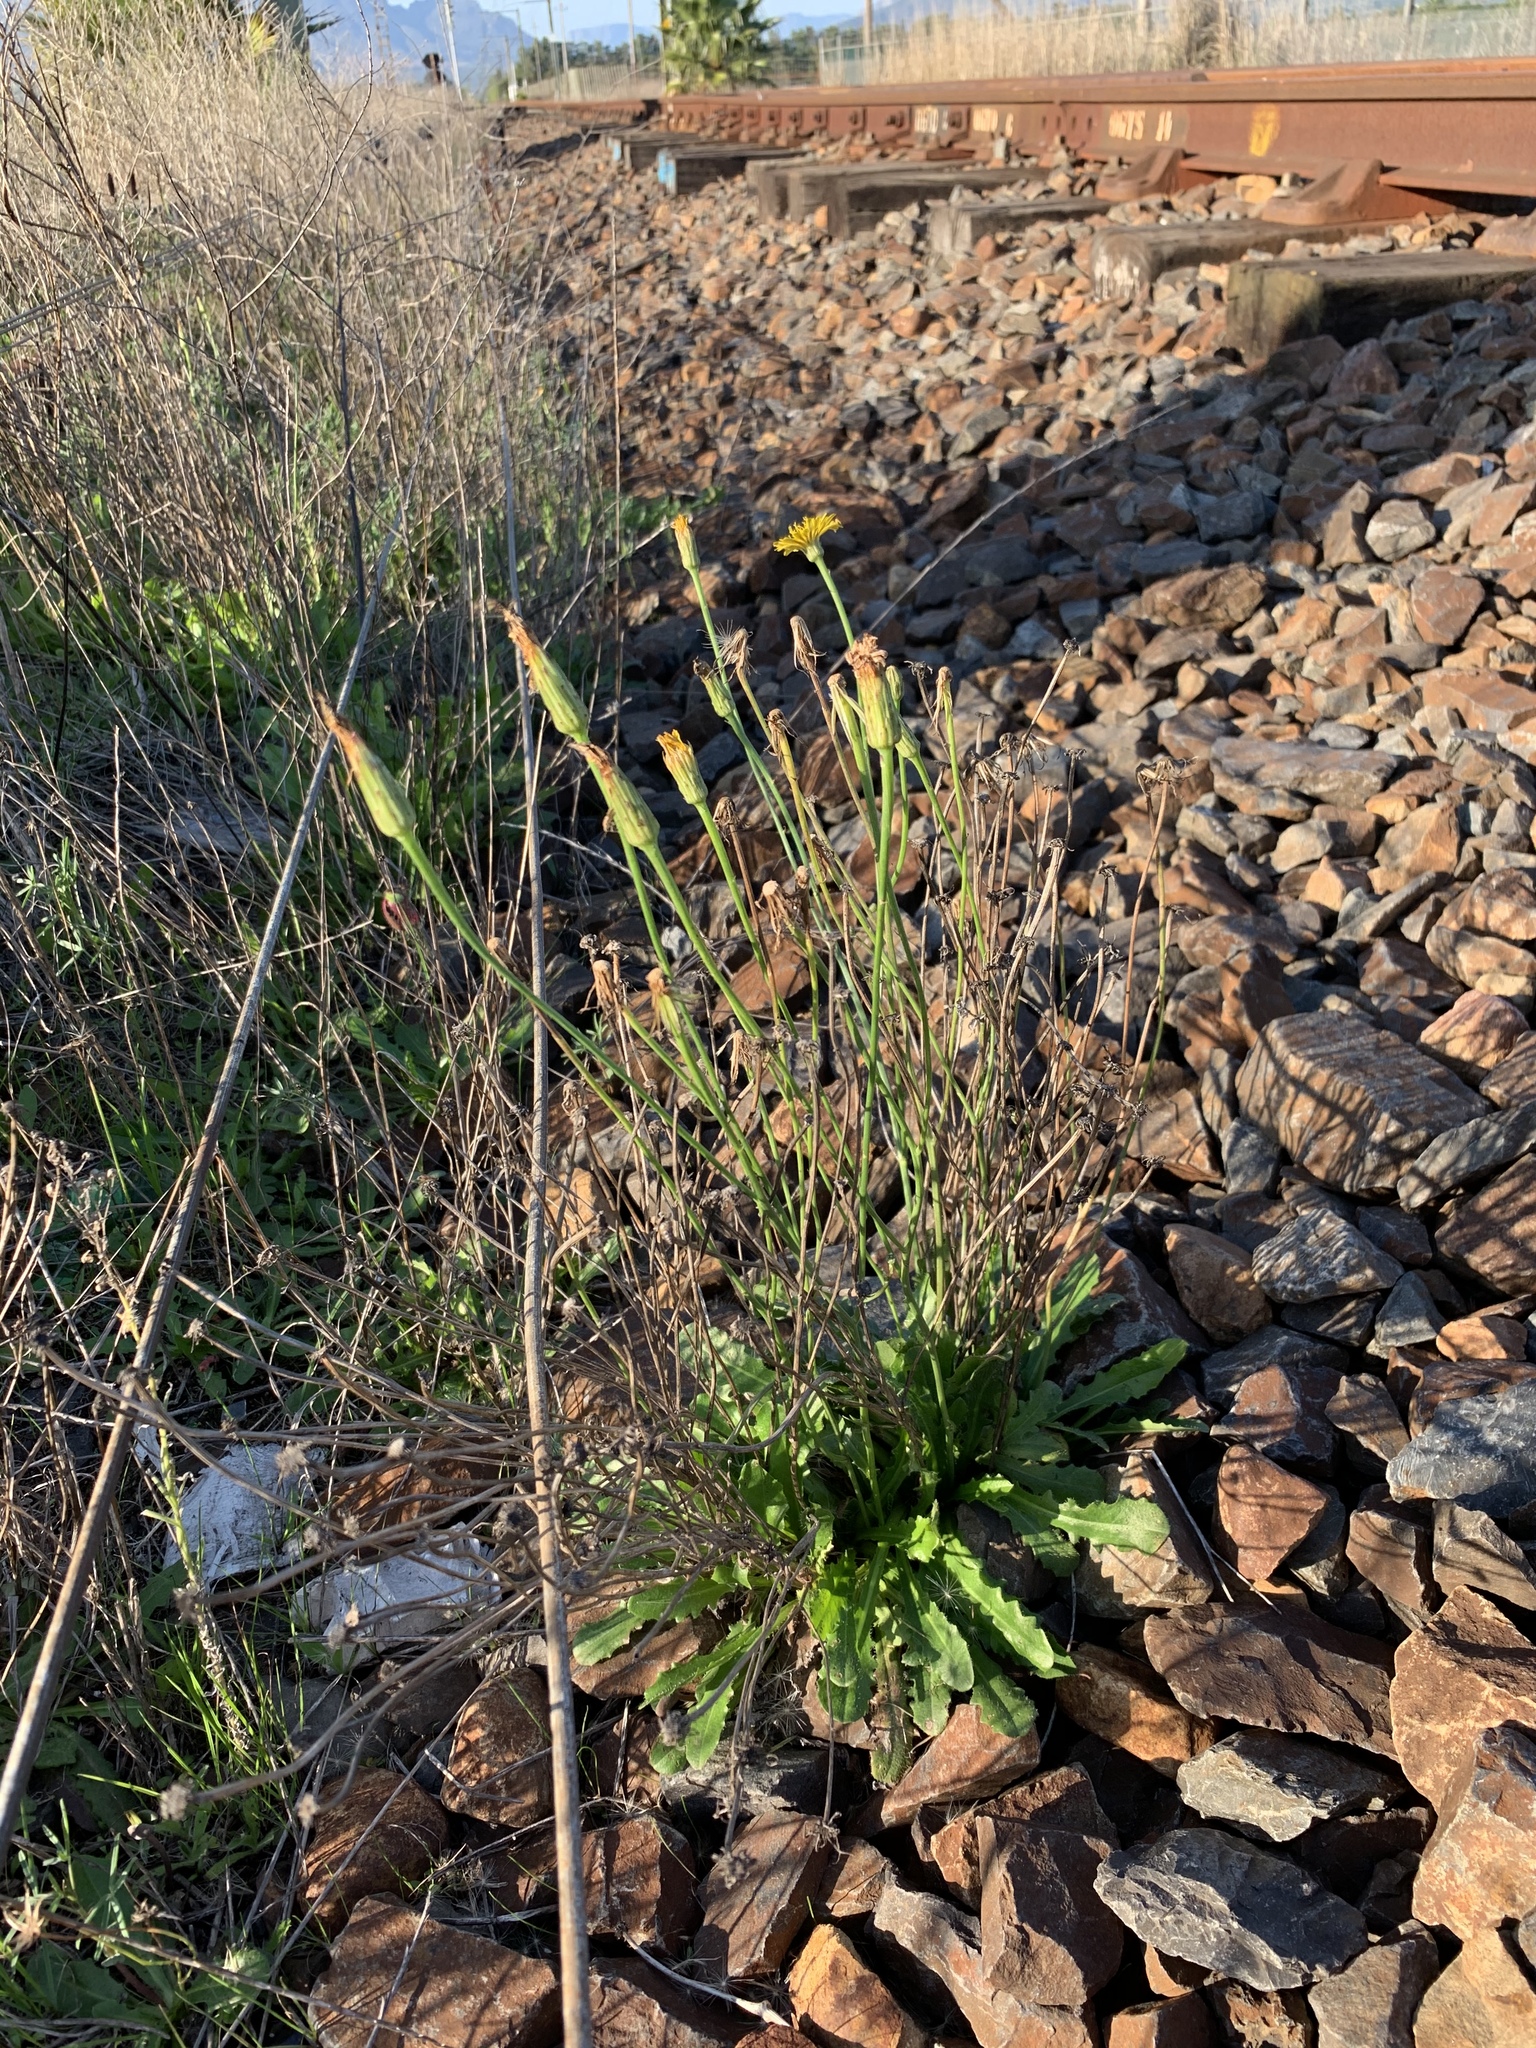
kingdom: Plantae
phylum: Tracheophyta
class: Magnoliopsida
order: Asterales
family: Asteraceae
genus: Hypochaeris
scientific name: Hypochaeris radicata
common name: Flatweed
